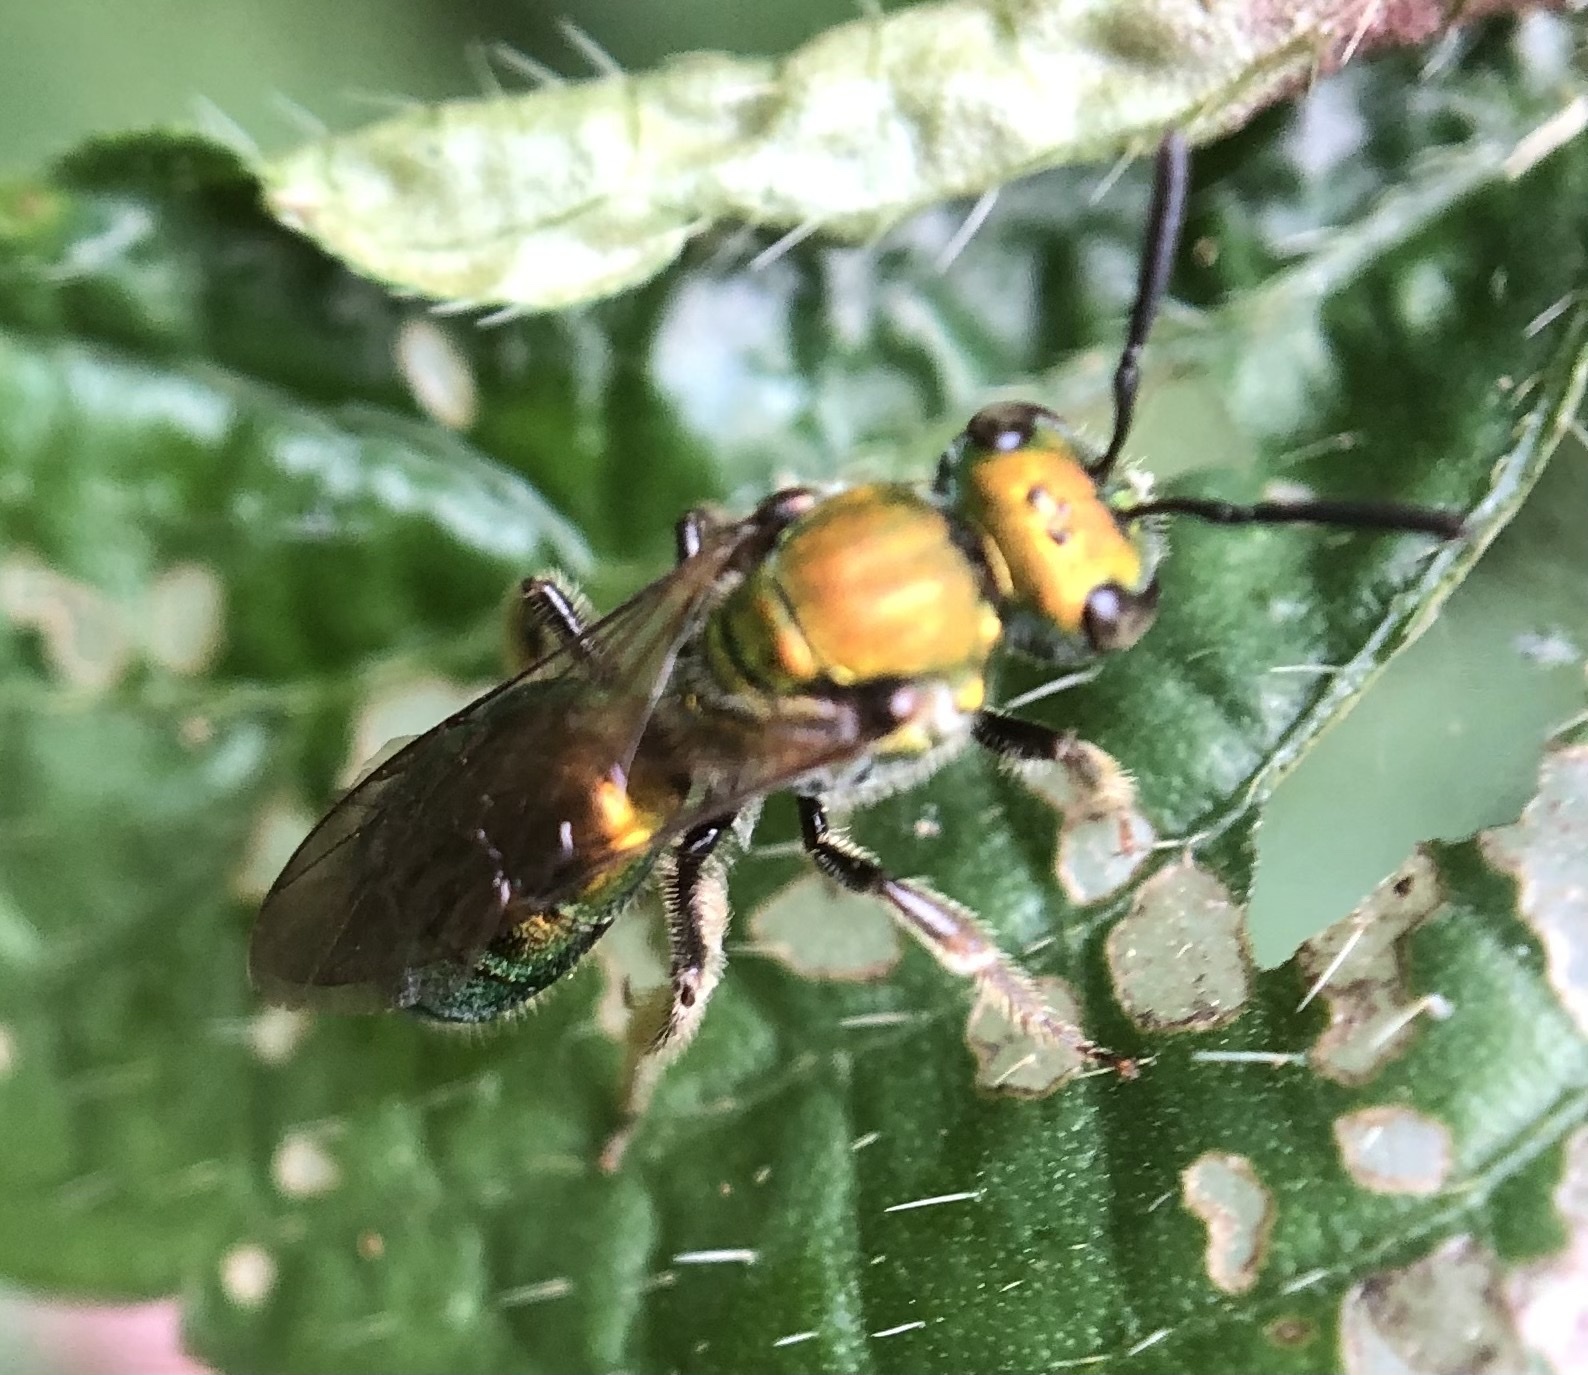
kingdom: Animalia
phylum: Arthropoda
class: Insecta
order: Hymenoptera
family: Halictidae
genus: Augochlora
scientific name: Augochlora pura
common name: Pure green sweat bee
